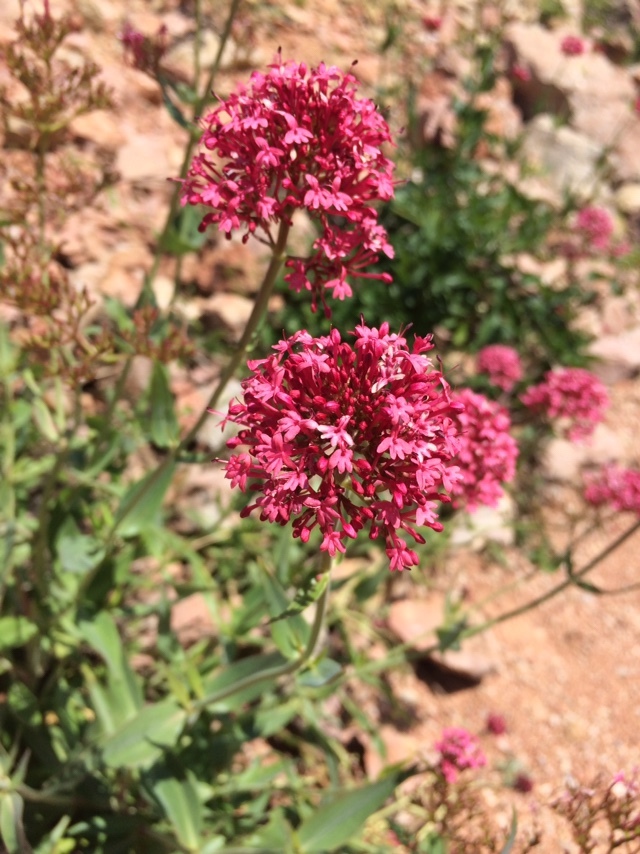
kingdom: Plantae
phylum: Tracheophyta
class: Magnoliopsida
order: Dipsacales
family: Caprifoliaceae
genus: Centranthus
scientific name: Centranthus ruber
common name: Red valerian
